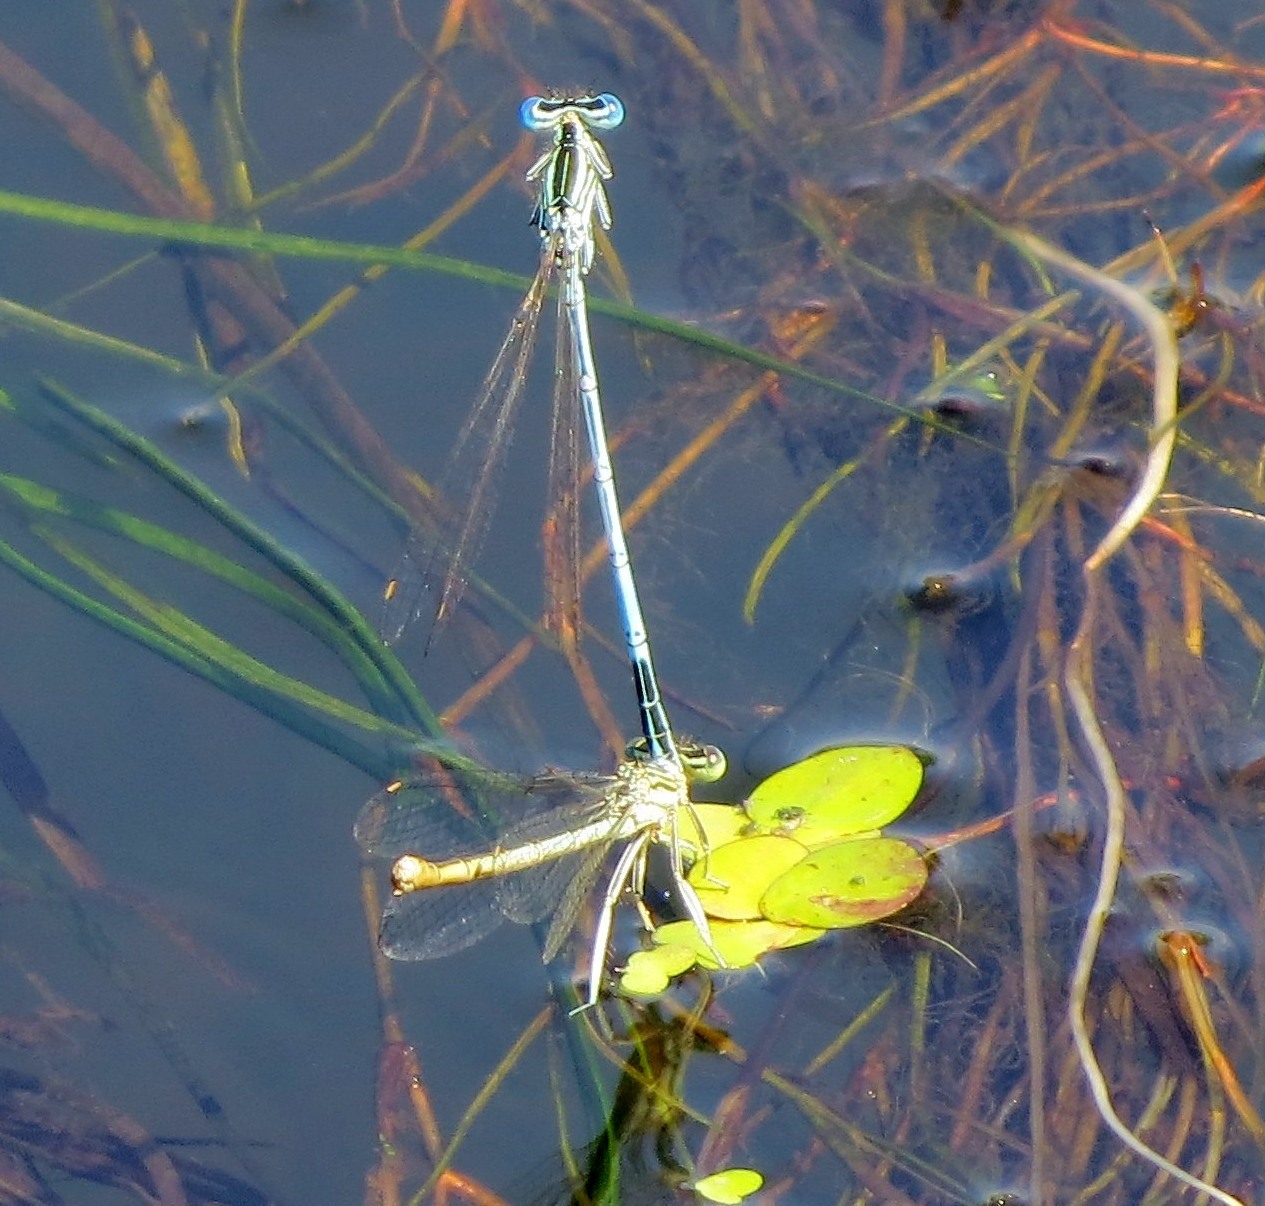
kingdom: Animalia
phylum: Arthropoda
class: Insecta
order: Odonata
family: Platycnemididae
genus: Platycnemis
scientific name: Platycnemis pennipes
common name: White-legged damselfly
